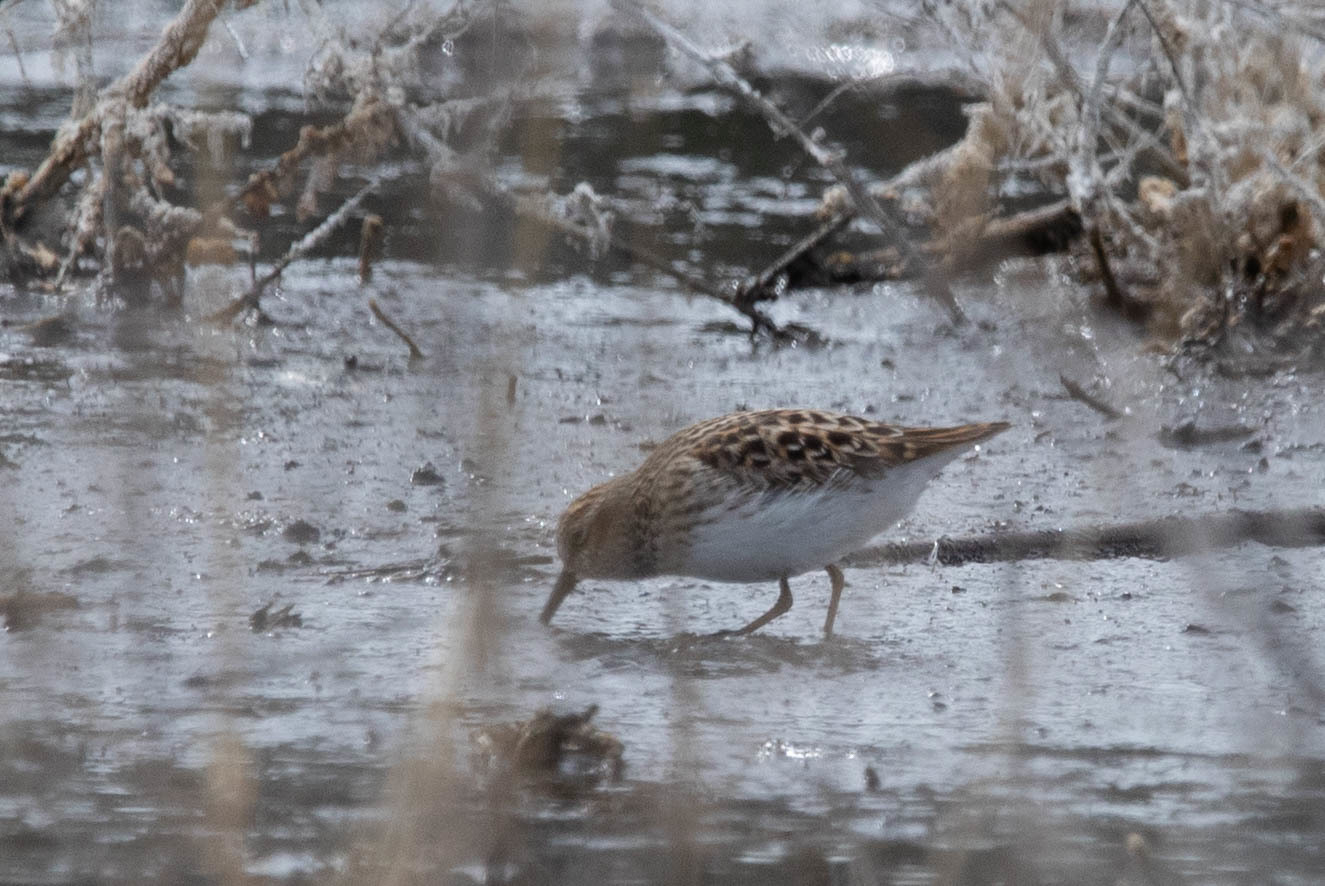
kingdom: Animalia
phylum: Chordata
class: Aves
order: Charadriiformes
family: Scolopacidae
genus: Calidris
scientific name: Calidris minutilla
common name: Least sandpiper
